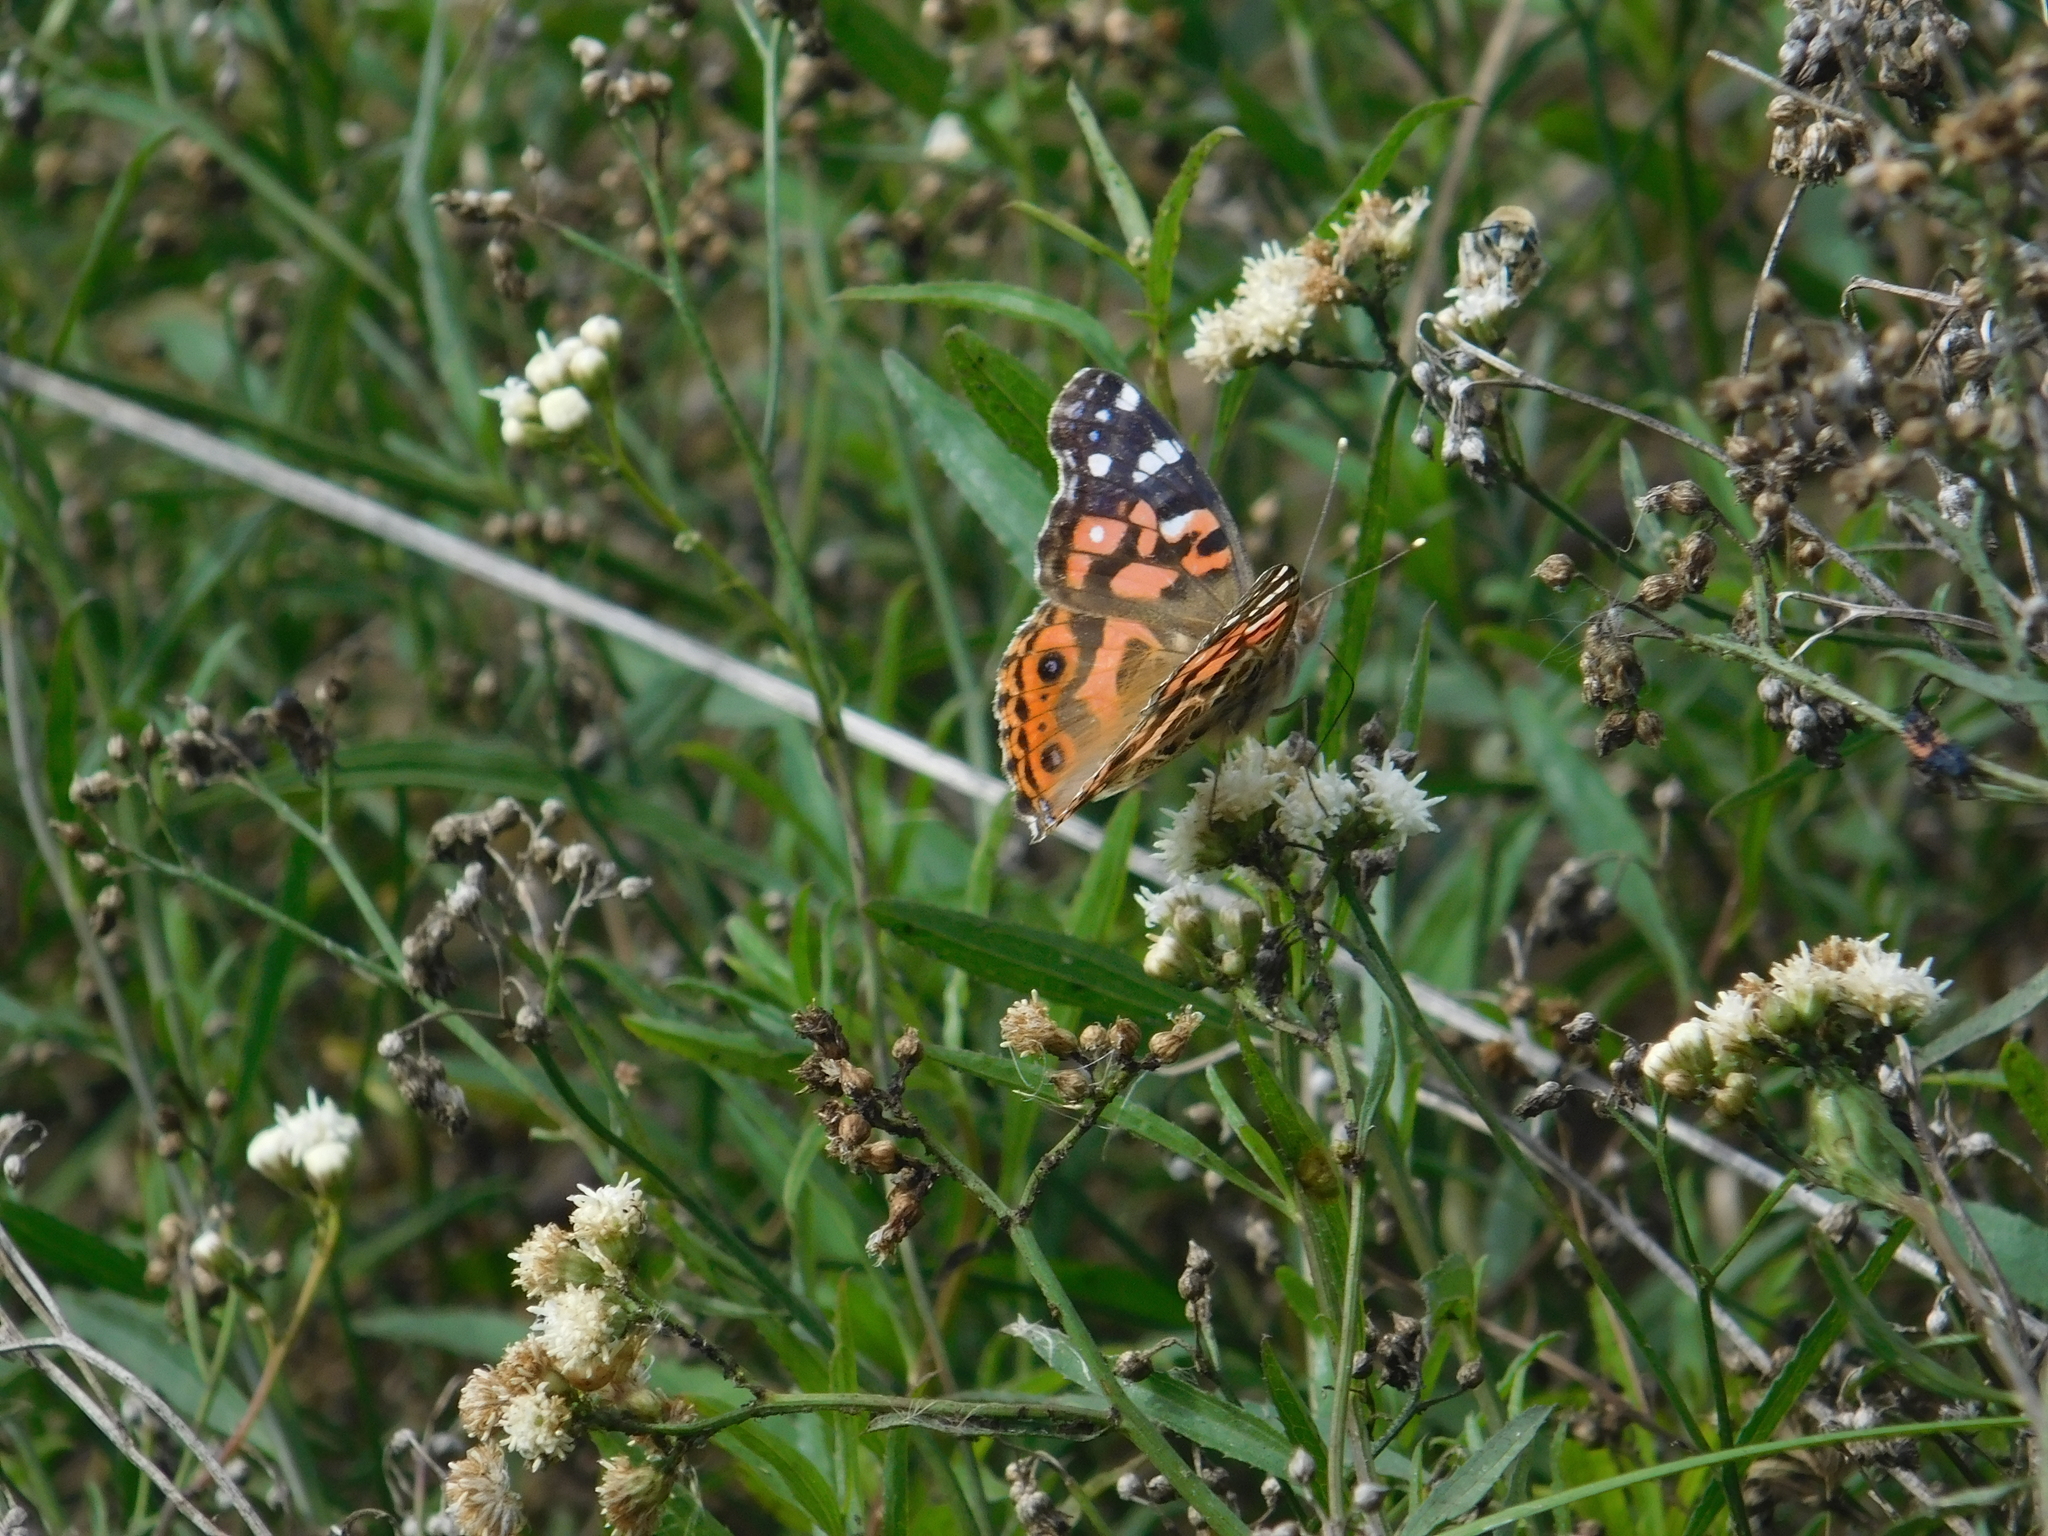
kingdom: Animalia
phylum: Arthropoda
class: Insecta
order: Lepidoptera
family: Nymphalidae
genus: Vanessa
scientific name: Vanessa braziliensis
